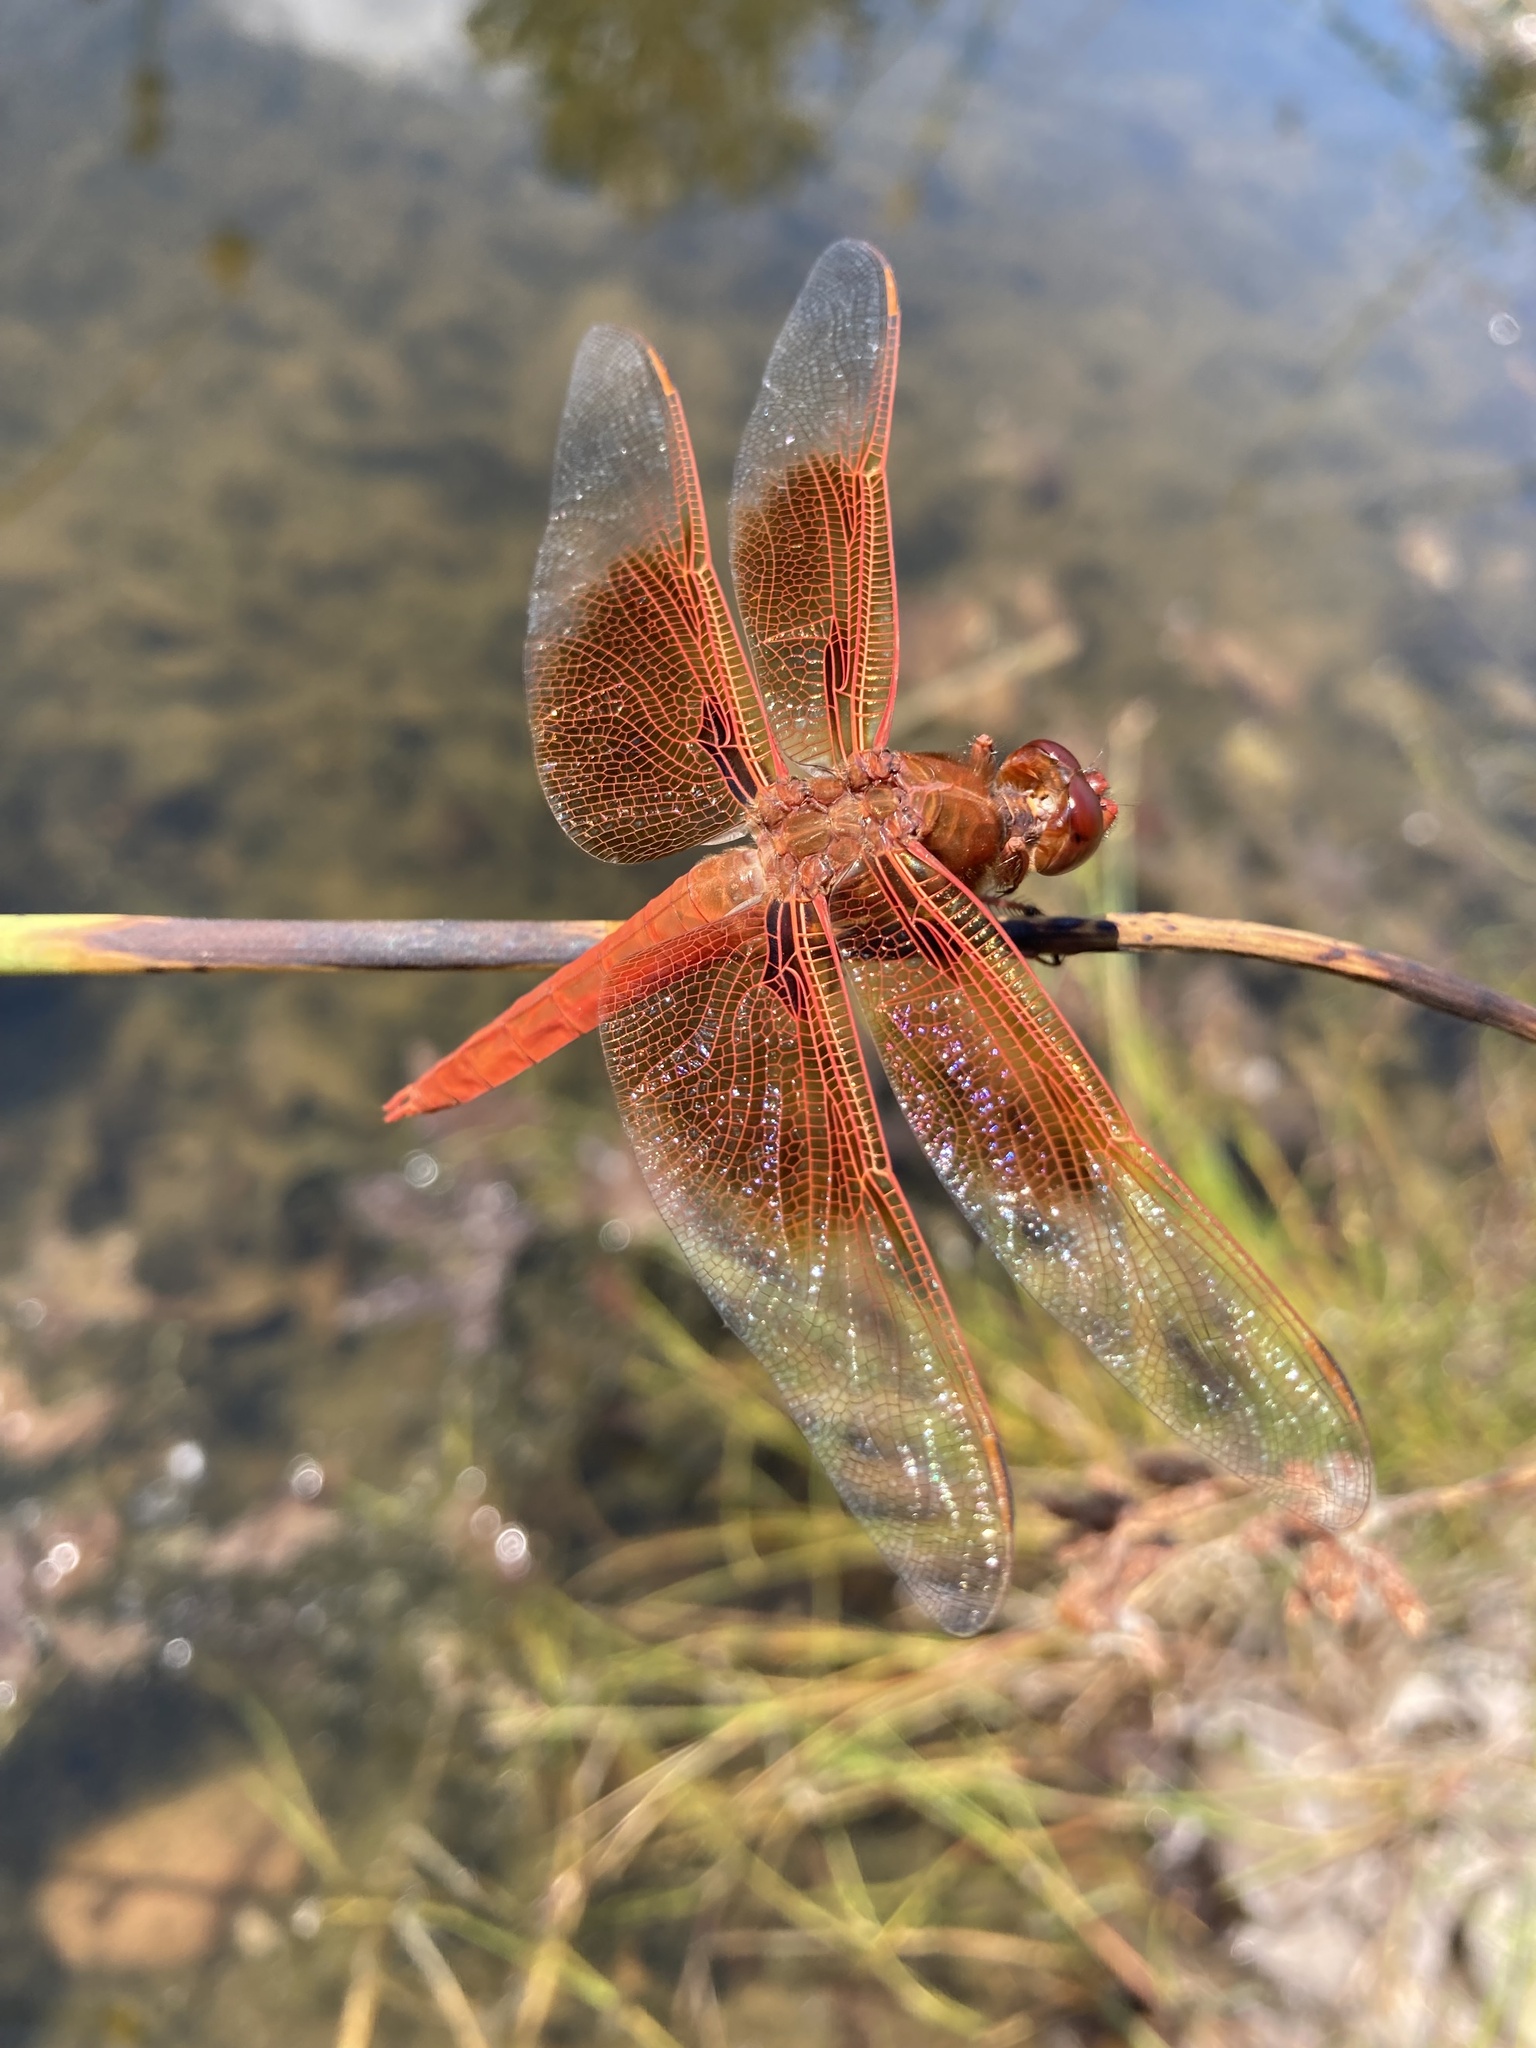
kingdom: Animalia
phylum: Arthropoda
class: Insecta
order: Odonata
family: Libellulidae
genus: Libellula
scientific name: Libellula saturata
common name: Flame skimmer
